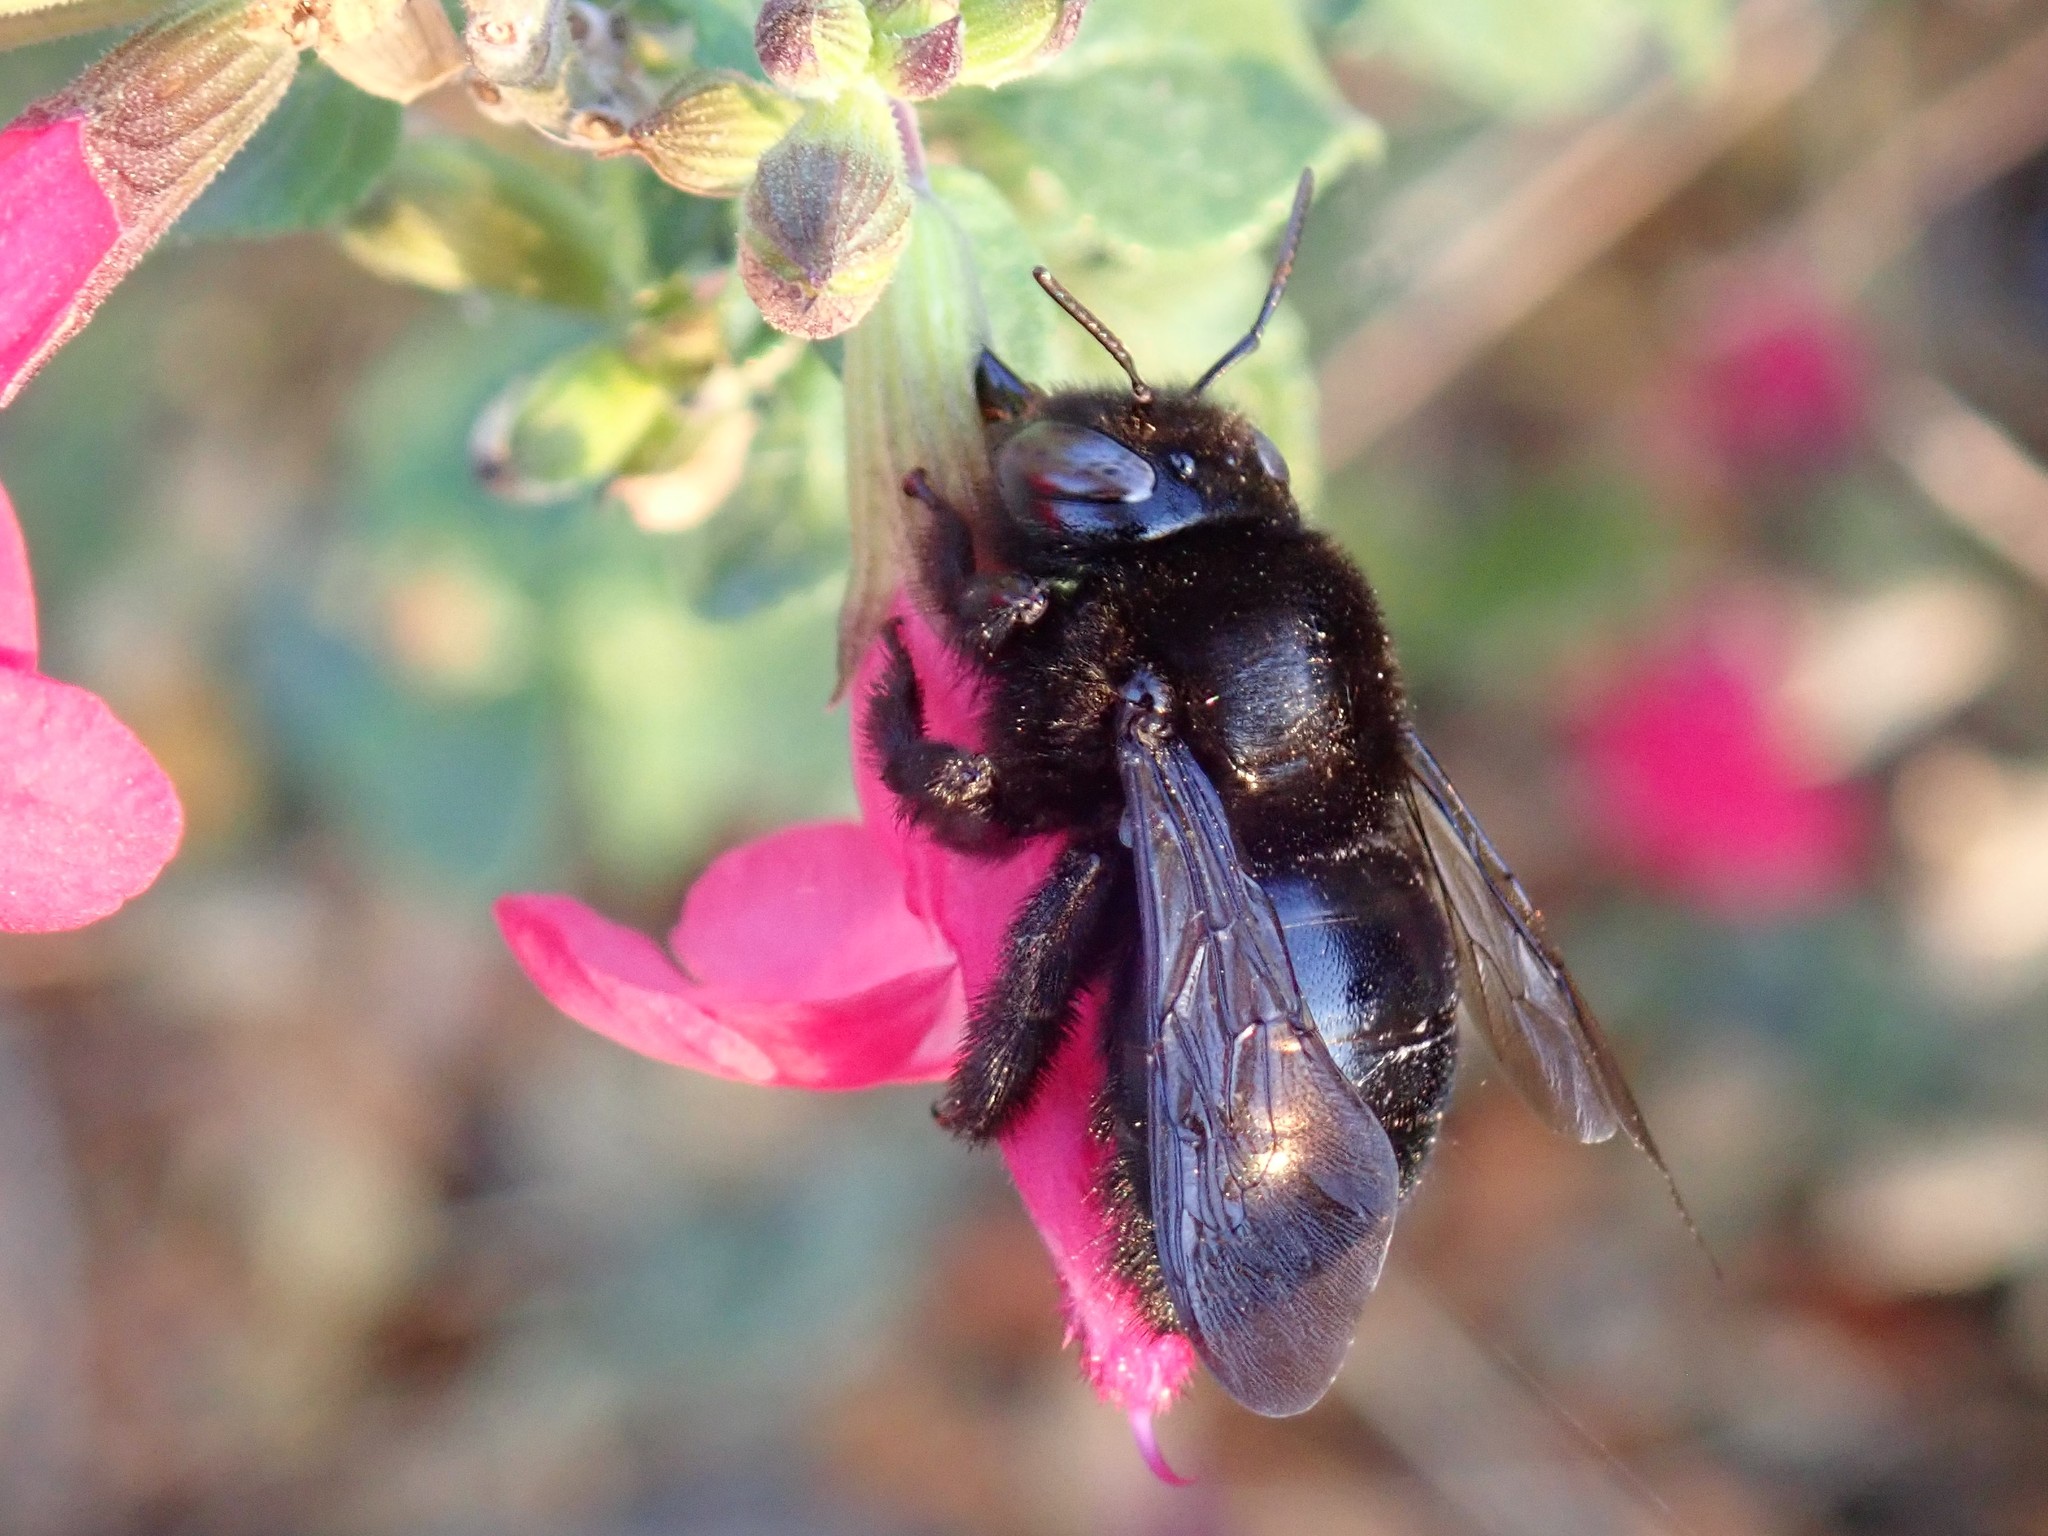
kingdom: Animalia
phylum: Arthropoda
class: Insecta
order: Hymenoptera
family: Apidae
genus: Xylocopa
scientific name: Xylocopa tabaniformis
